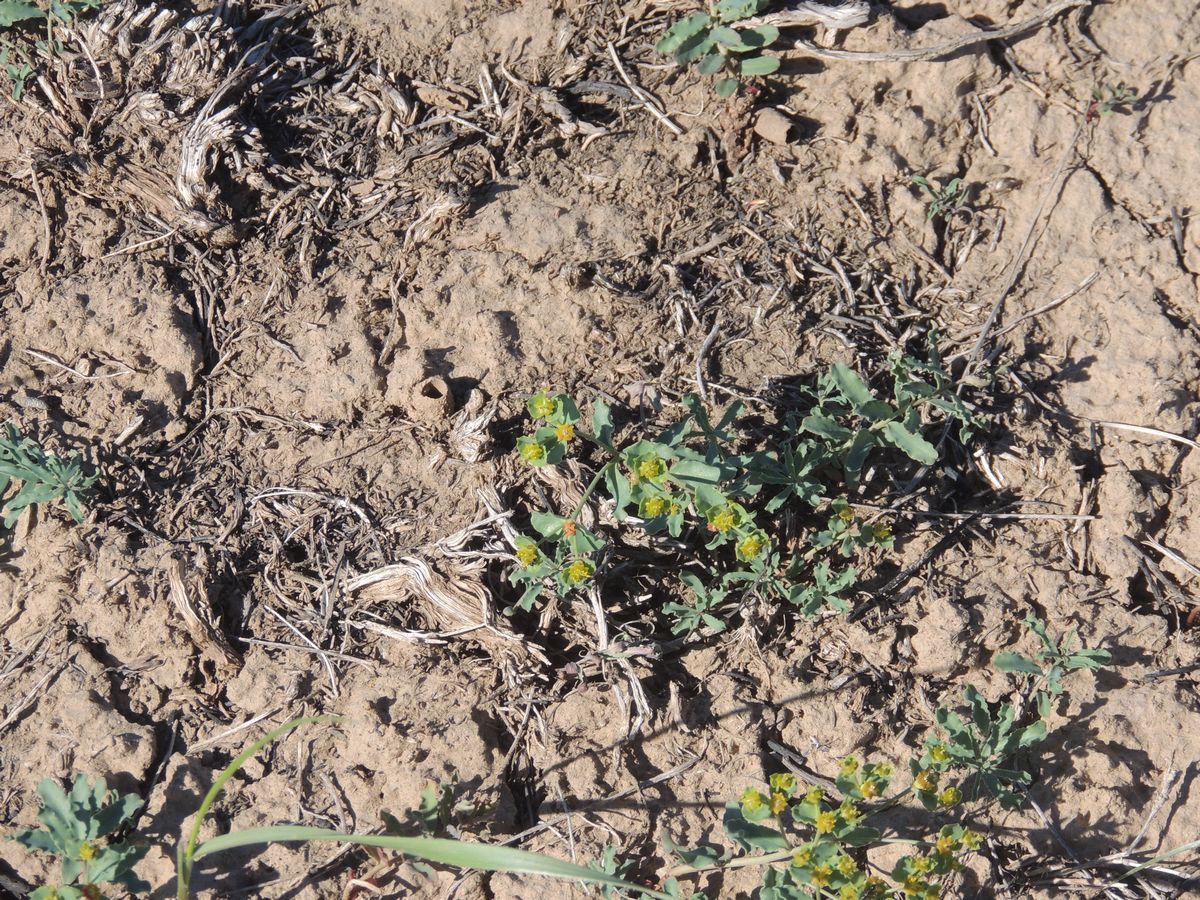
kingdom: Plantae
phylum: Tracheophyta
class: Magnoliopsida
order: Malpighiales
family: Euphorbiaceae
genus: Euphorbia
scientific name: Euphorbia undulata
